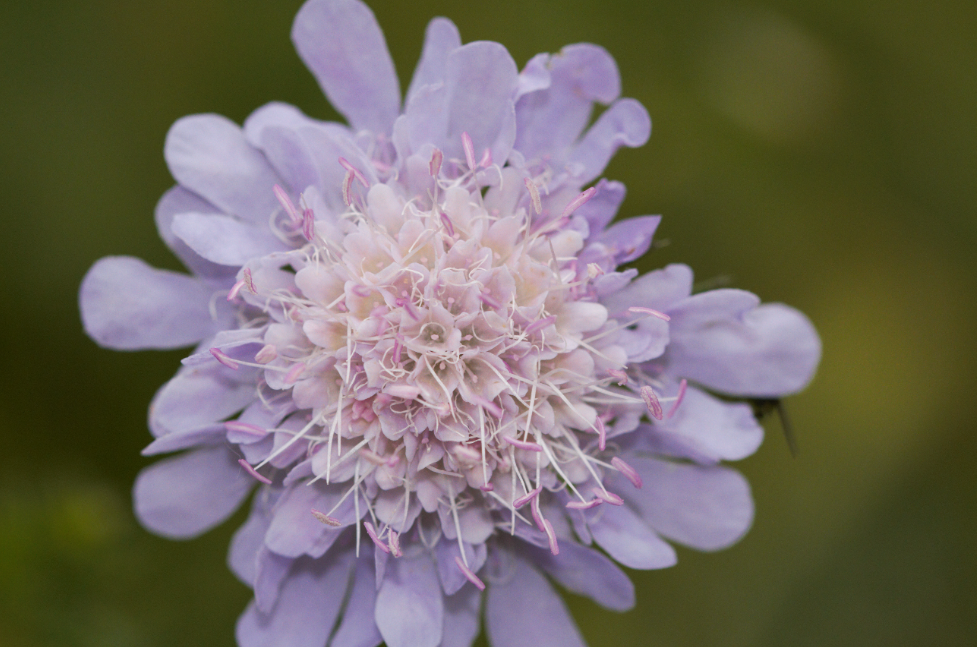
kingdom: Plantae
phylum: Tracheophyta
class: Magnoliopsida
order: Dipsacales
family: Caprifoliaceae
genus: Sixalix
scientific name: Sixalix atropurpurea
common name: Sweet scabious
